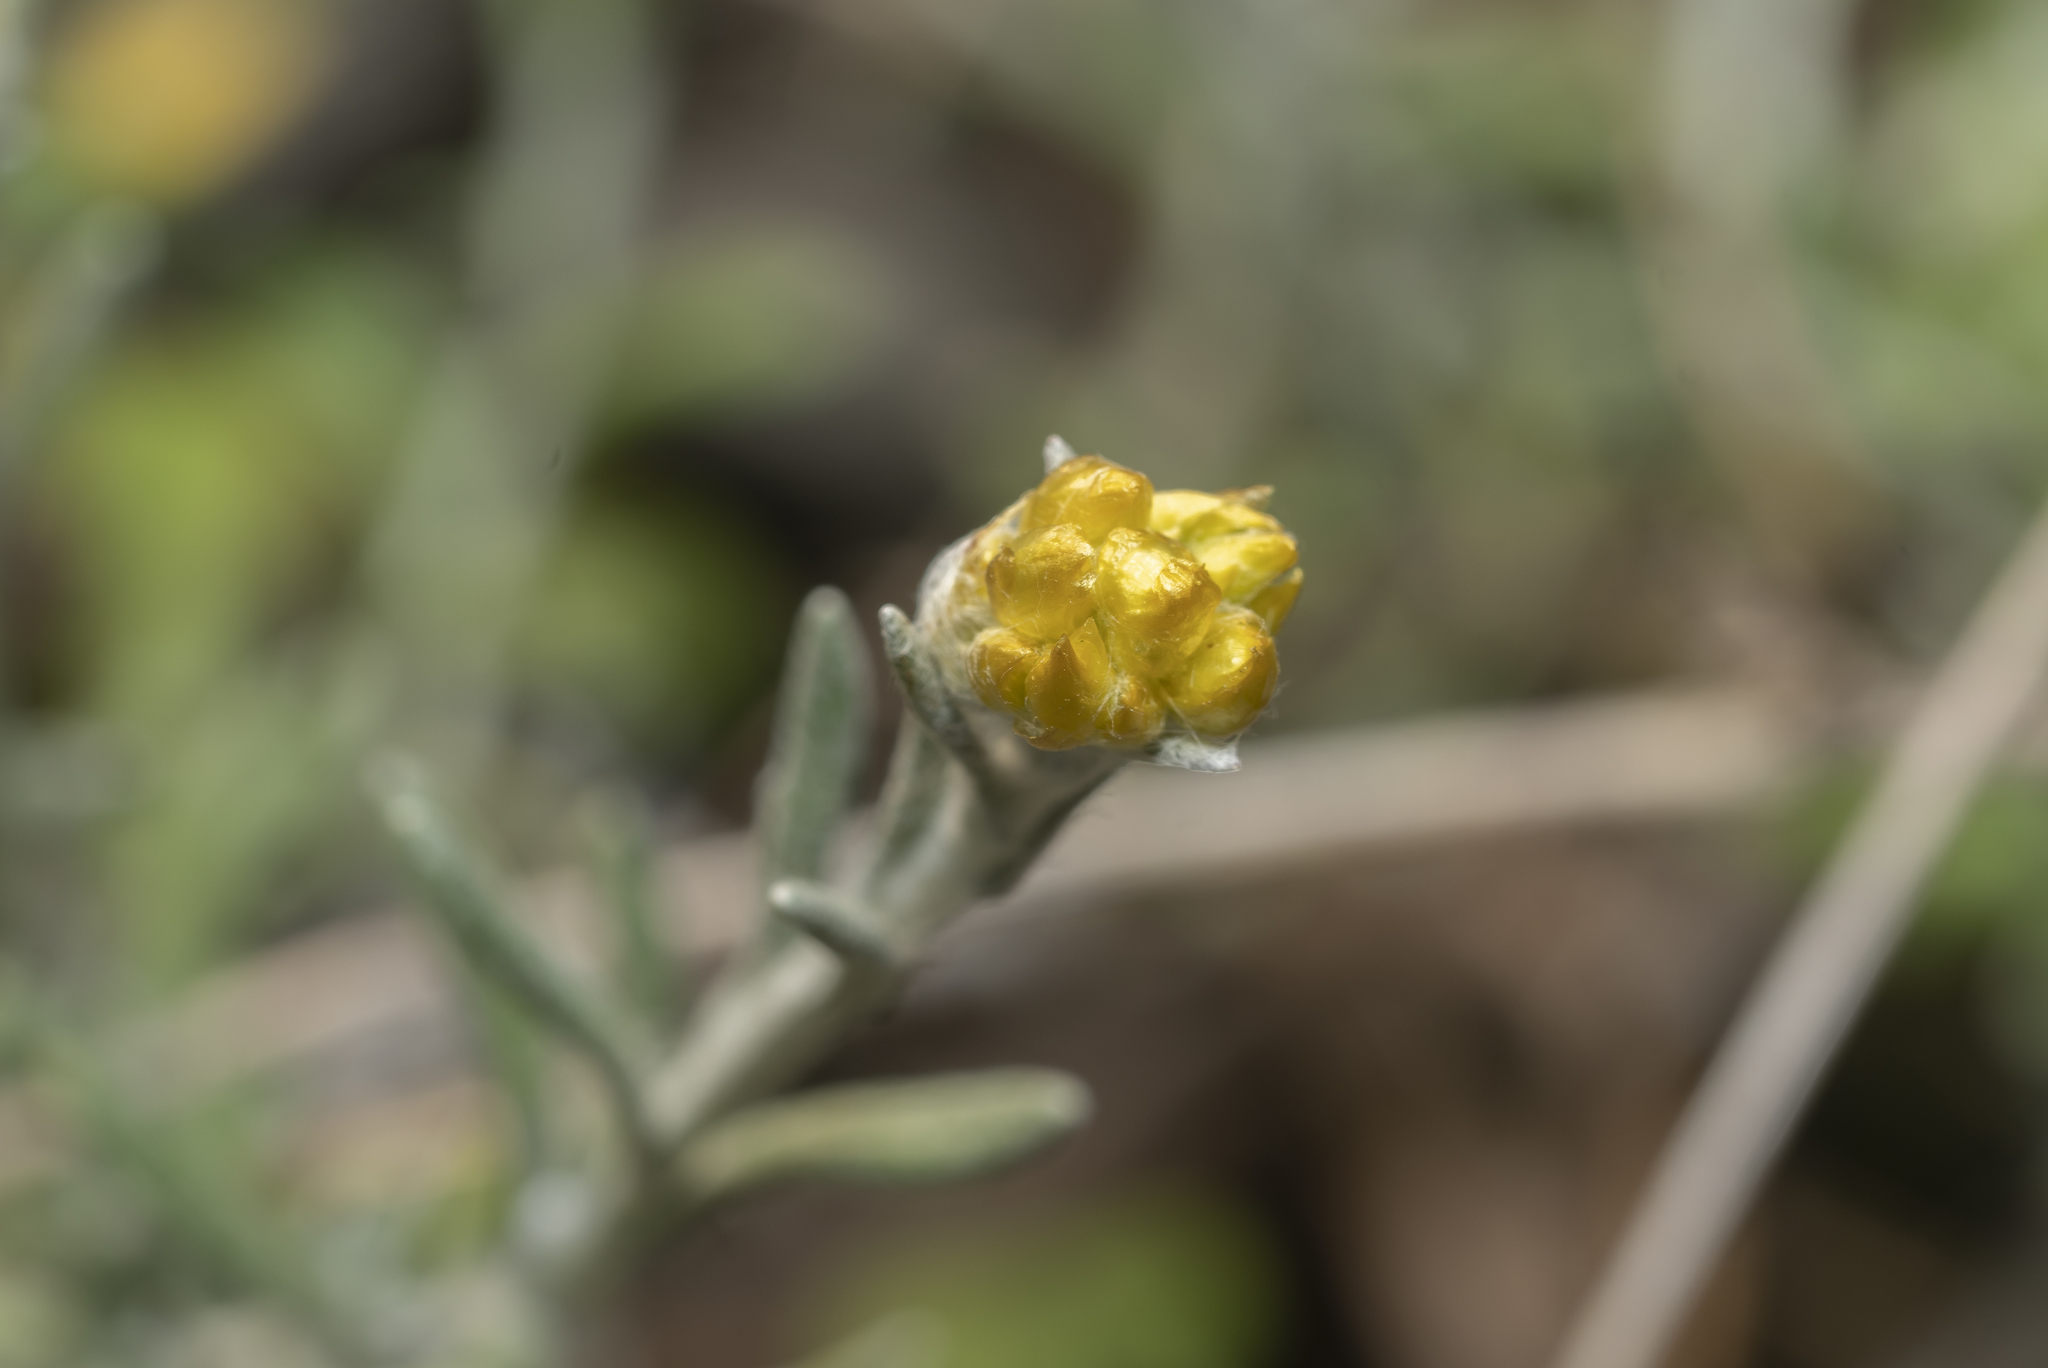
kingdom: Plantae
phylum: Tracheophyta
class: Magnoliopsida
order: Asterales
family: Asteraceae
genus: Helichrysum
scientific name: Helichrysum stoechas
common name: Goldilocks
